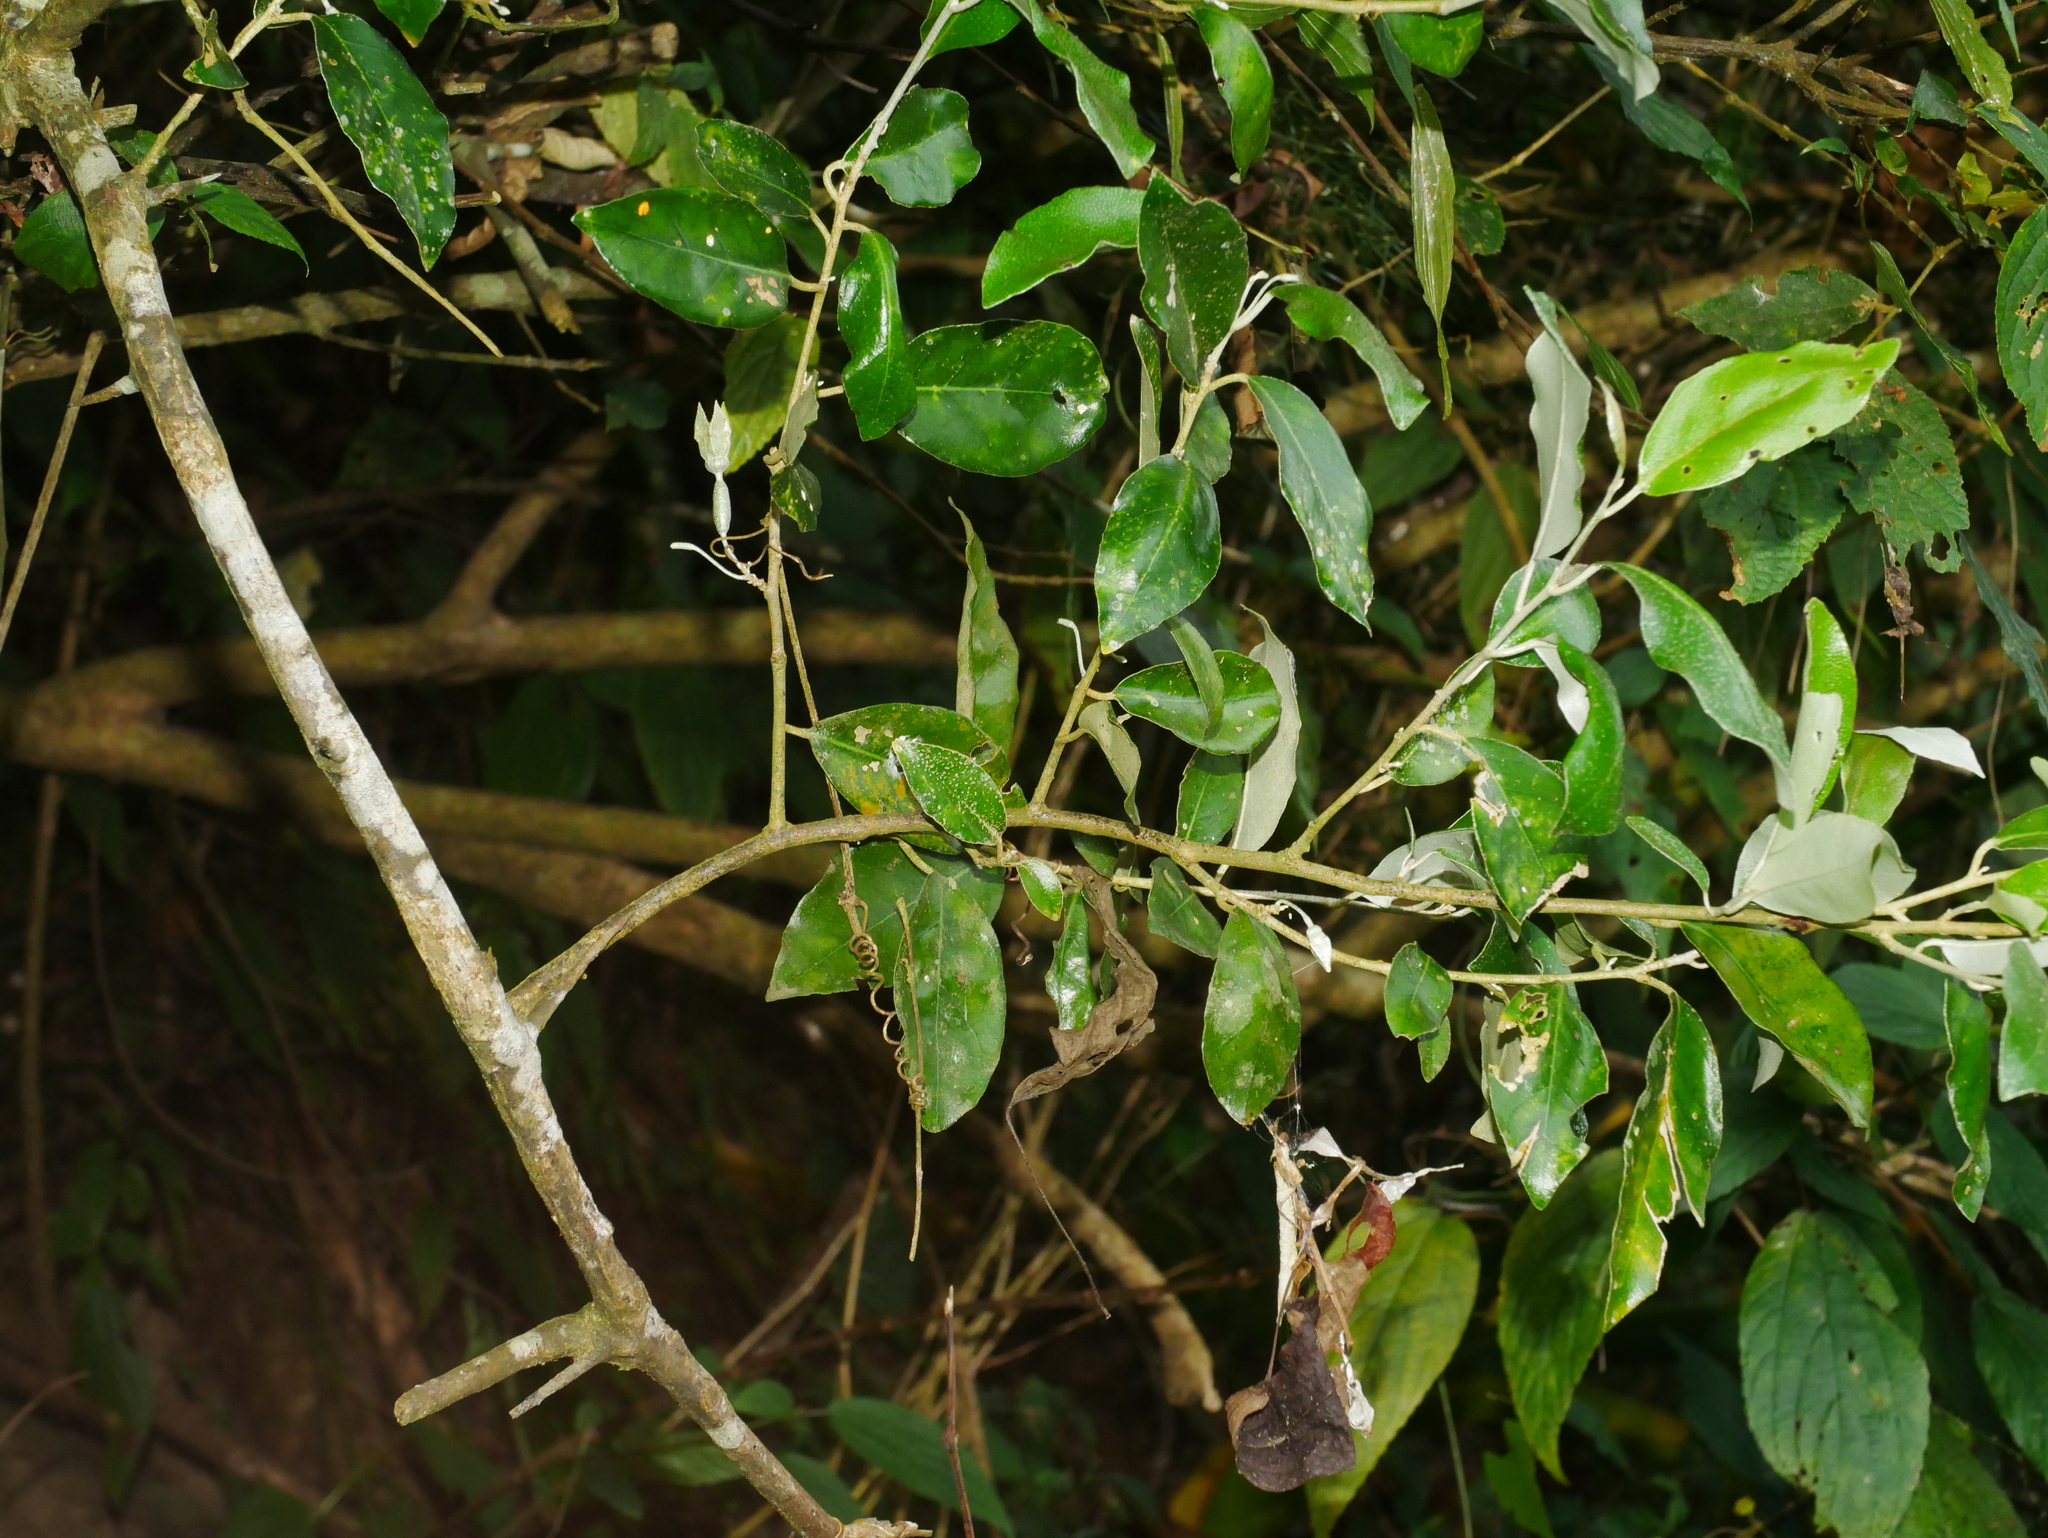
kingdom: Plantae
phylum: Tracheophyta
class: Magnoliopsida
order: Rosales
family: Elaeagnaceae
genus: Elaeagnus
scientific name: Elaeagnus formosensis
